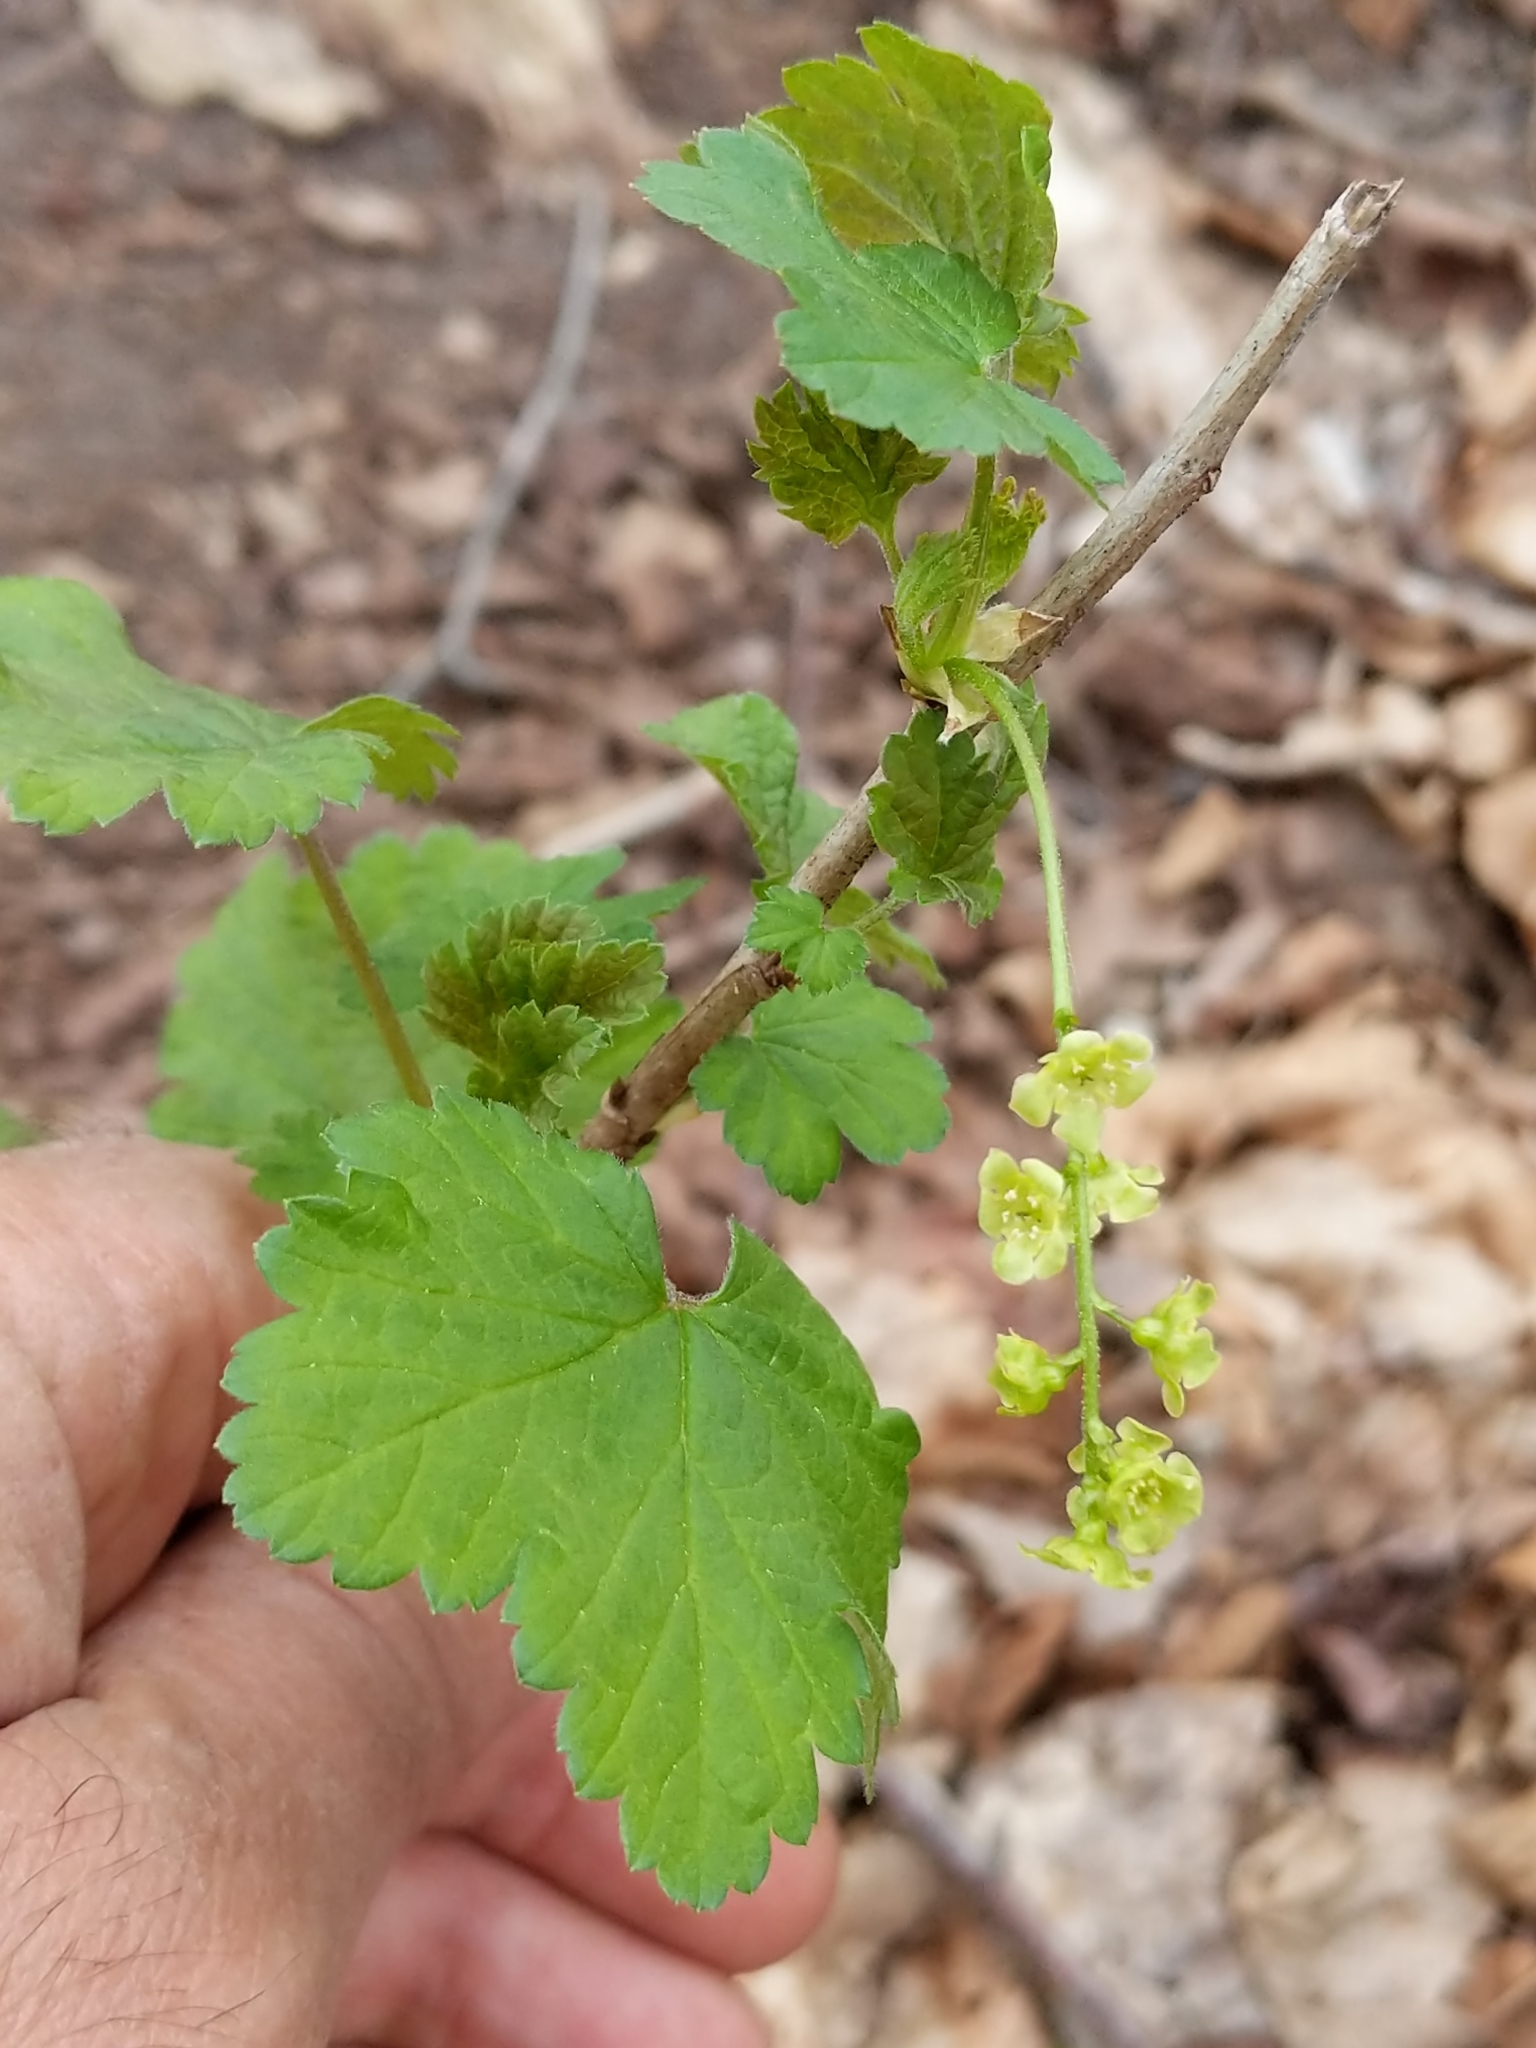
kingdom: Plantae
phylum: Tracheophyta
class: Magnoliopsida
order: Saxifragales
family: Grossulariaceae
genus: Ribes
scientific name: Ribes rubrum
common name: Red currant
